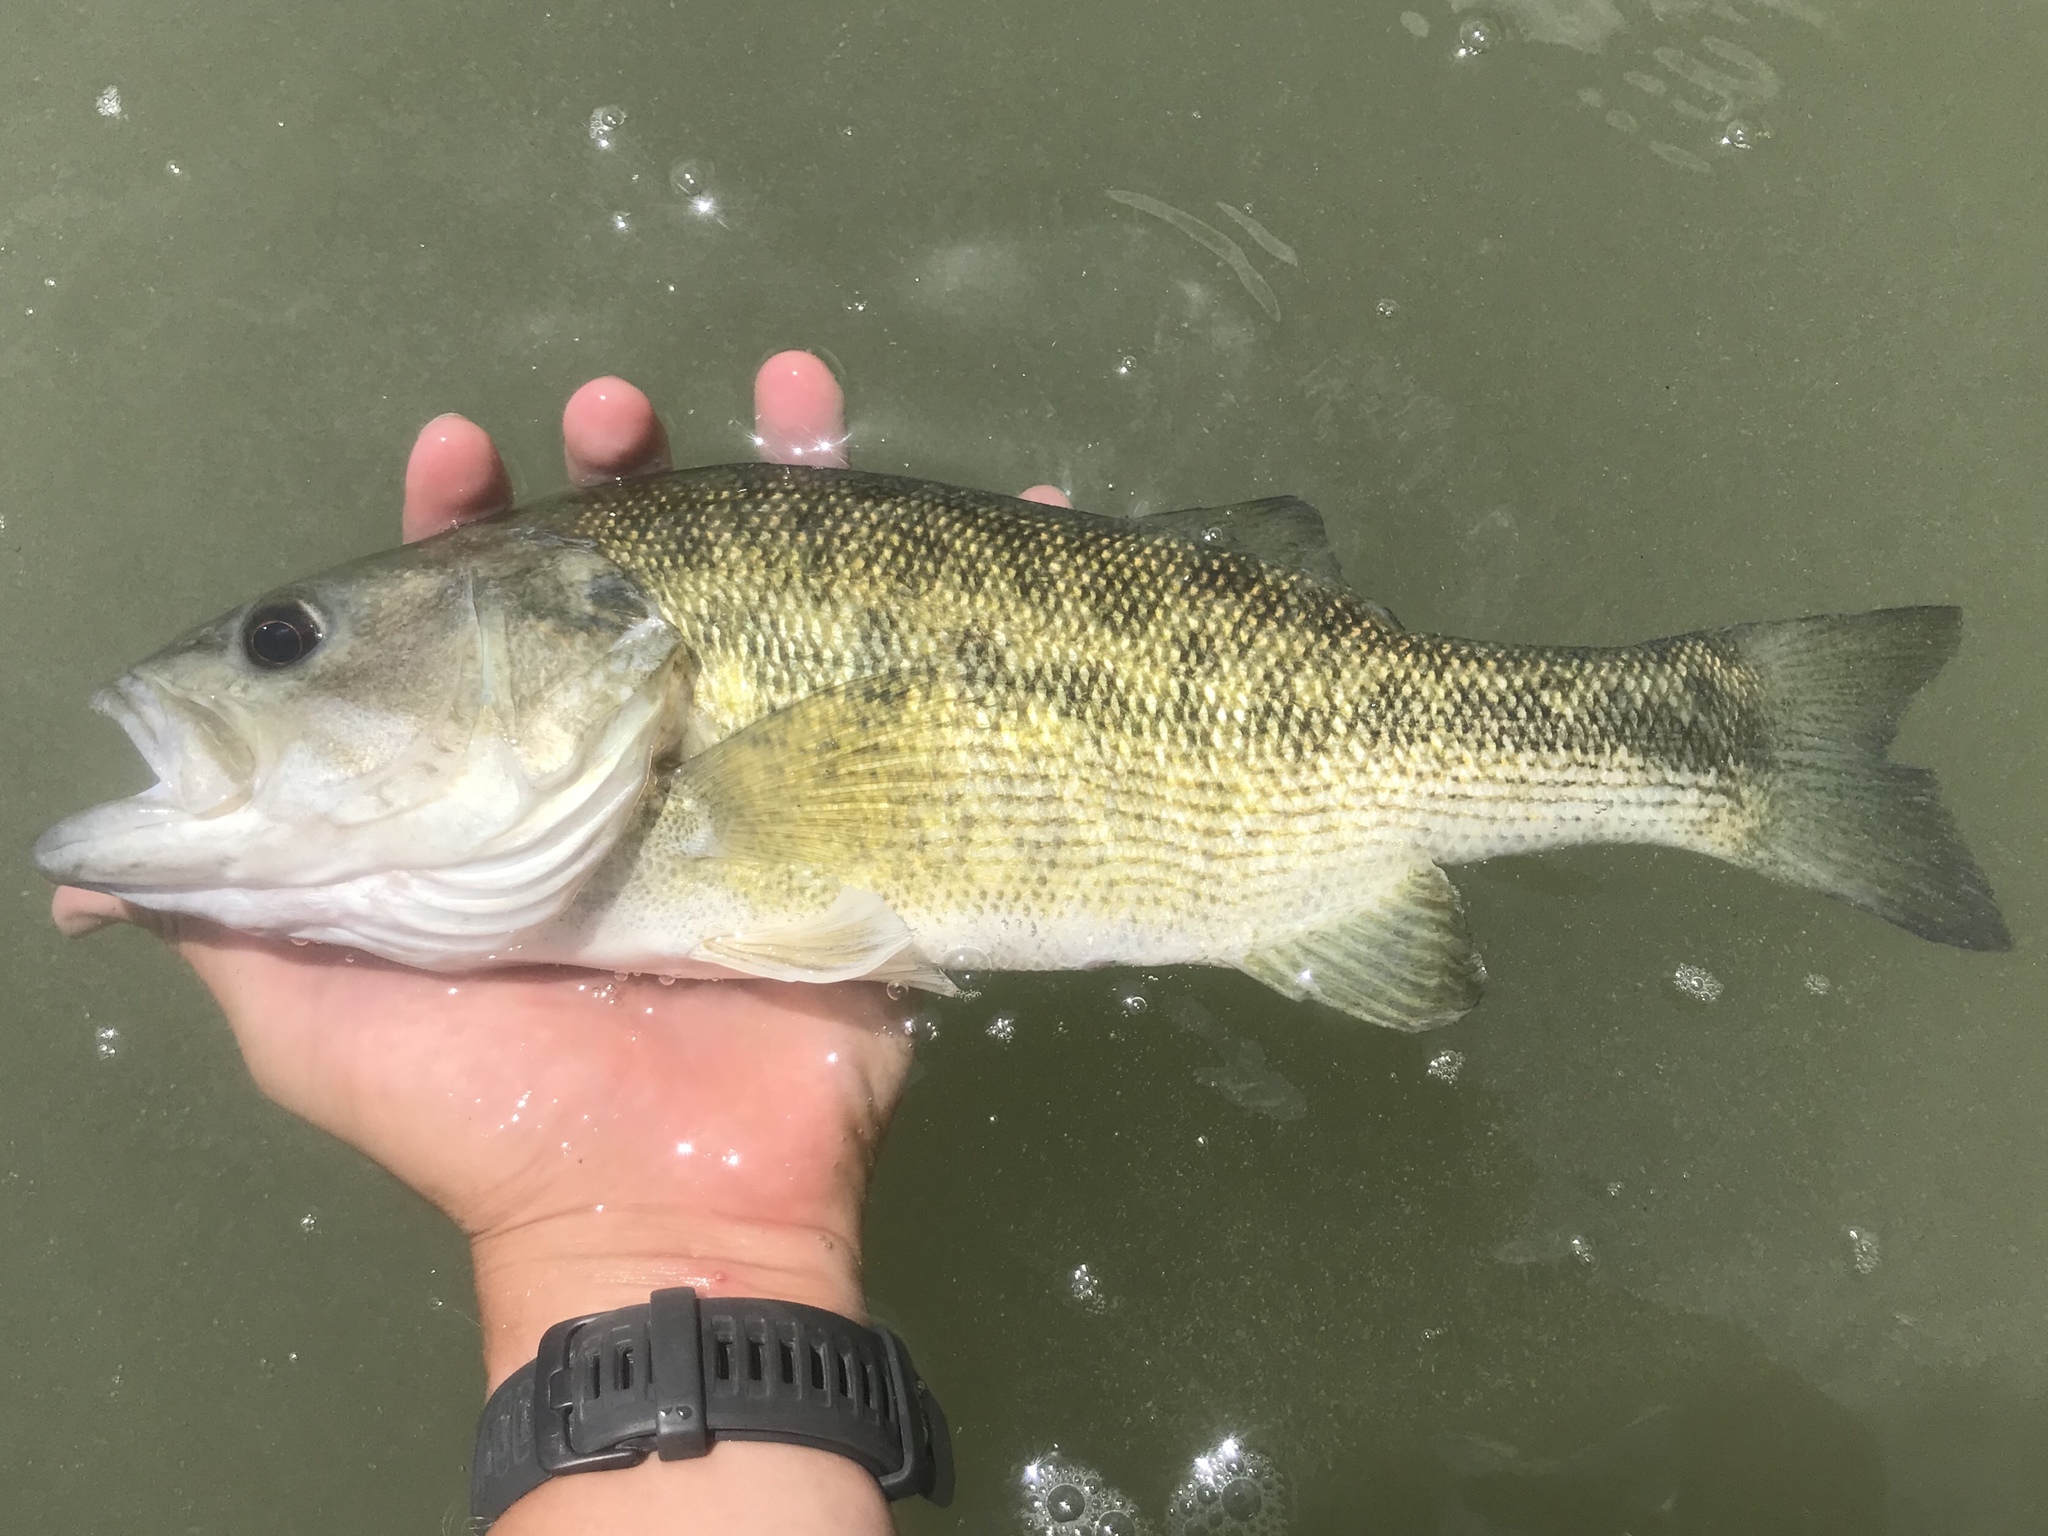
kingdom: Animalia
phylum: Chordata
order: Perciformes
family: Centrarchidae
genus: Micropterus
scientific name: Micropterus treculii
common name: Guadalupe bass
